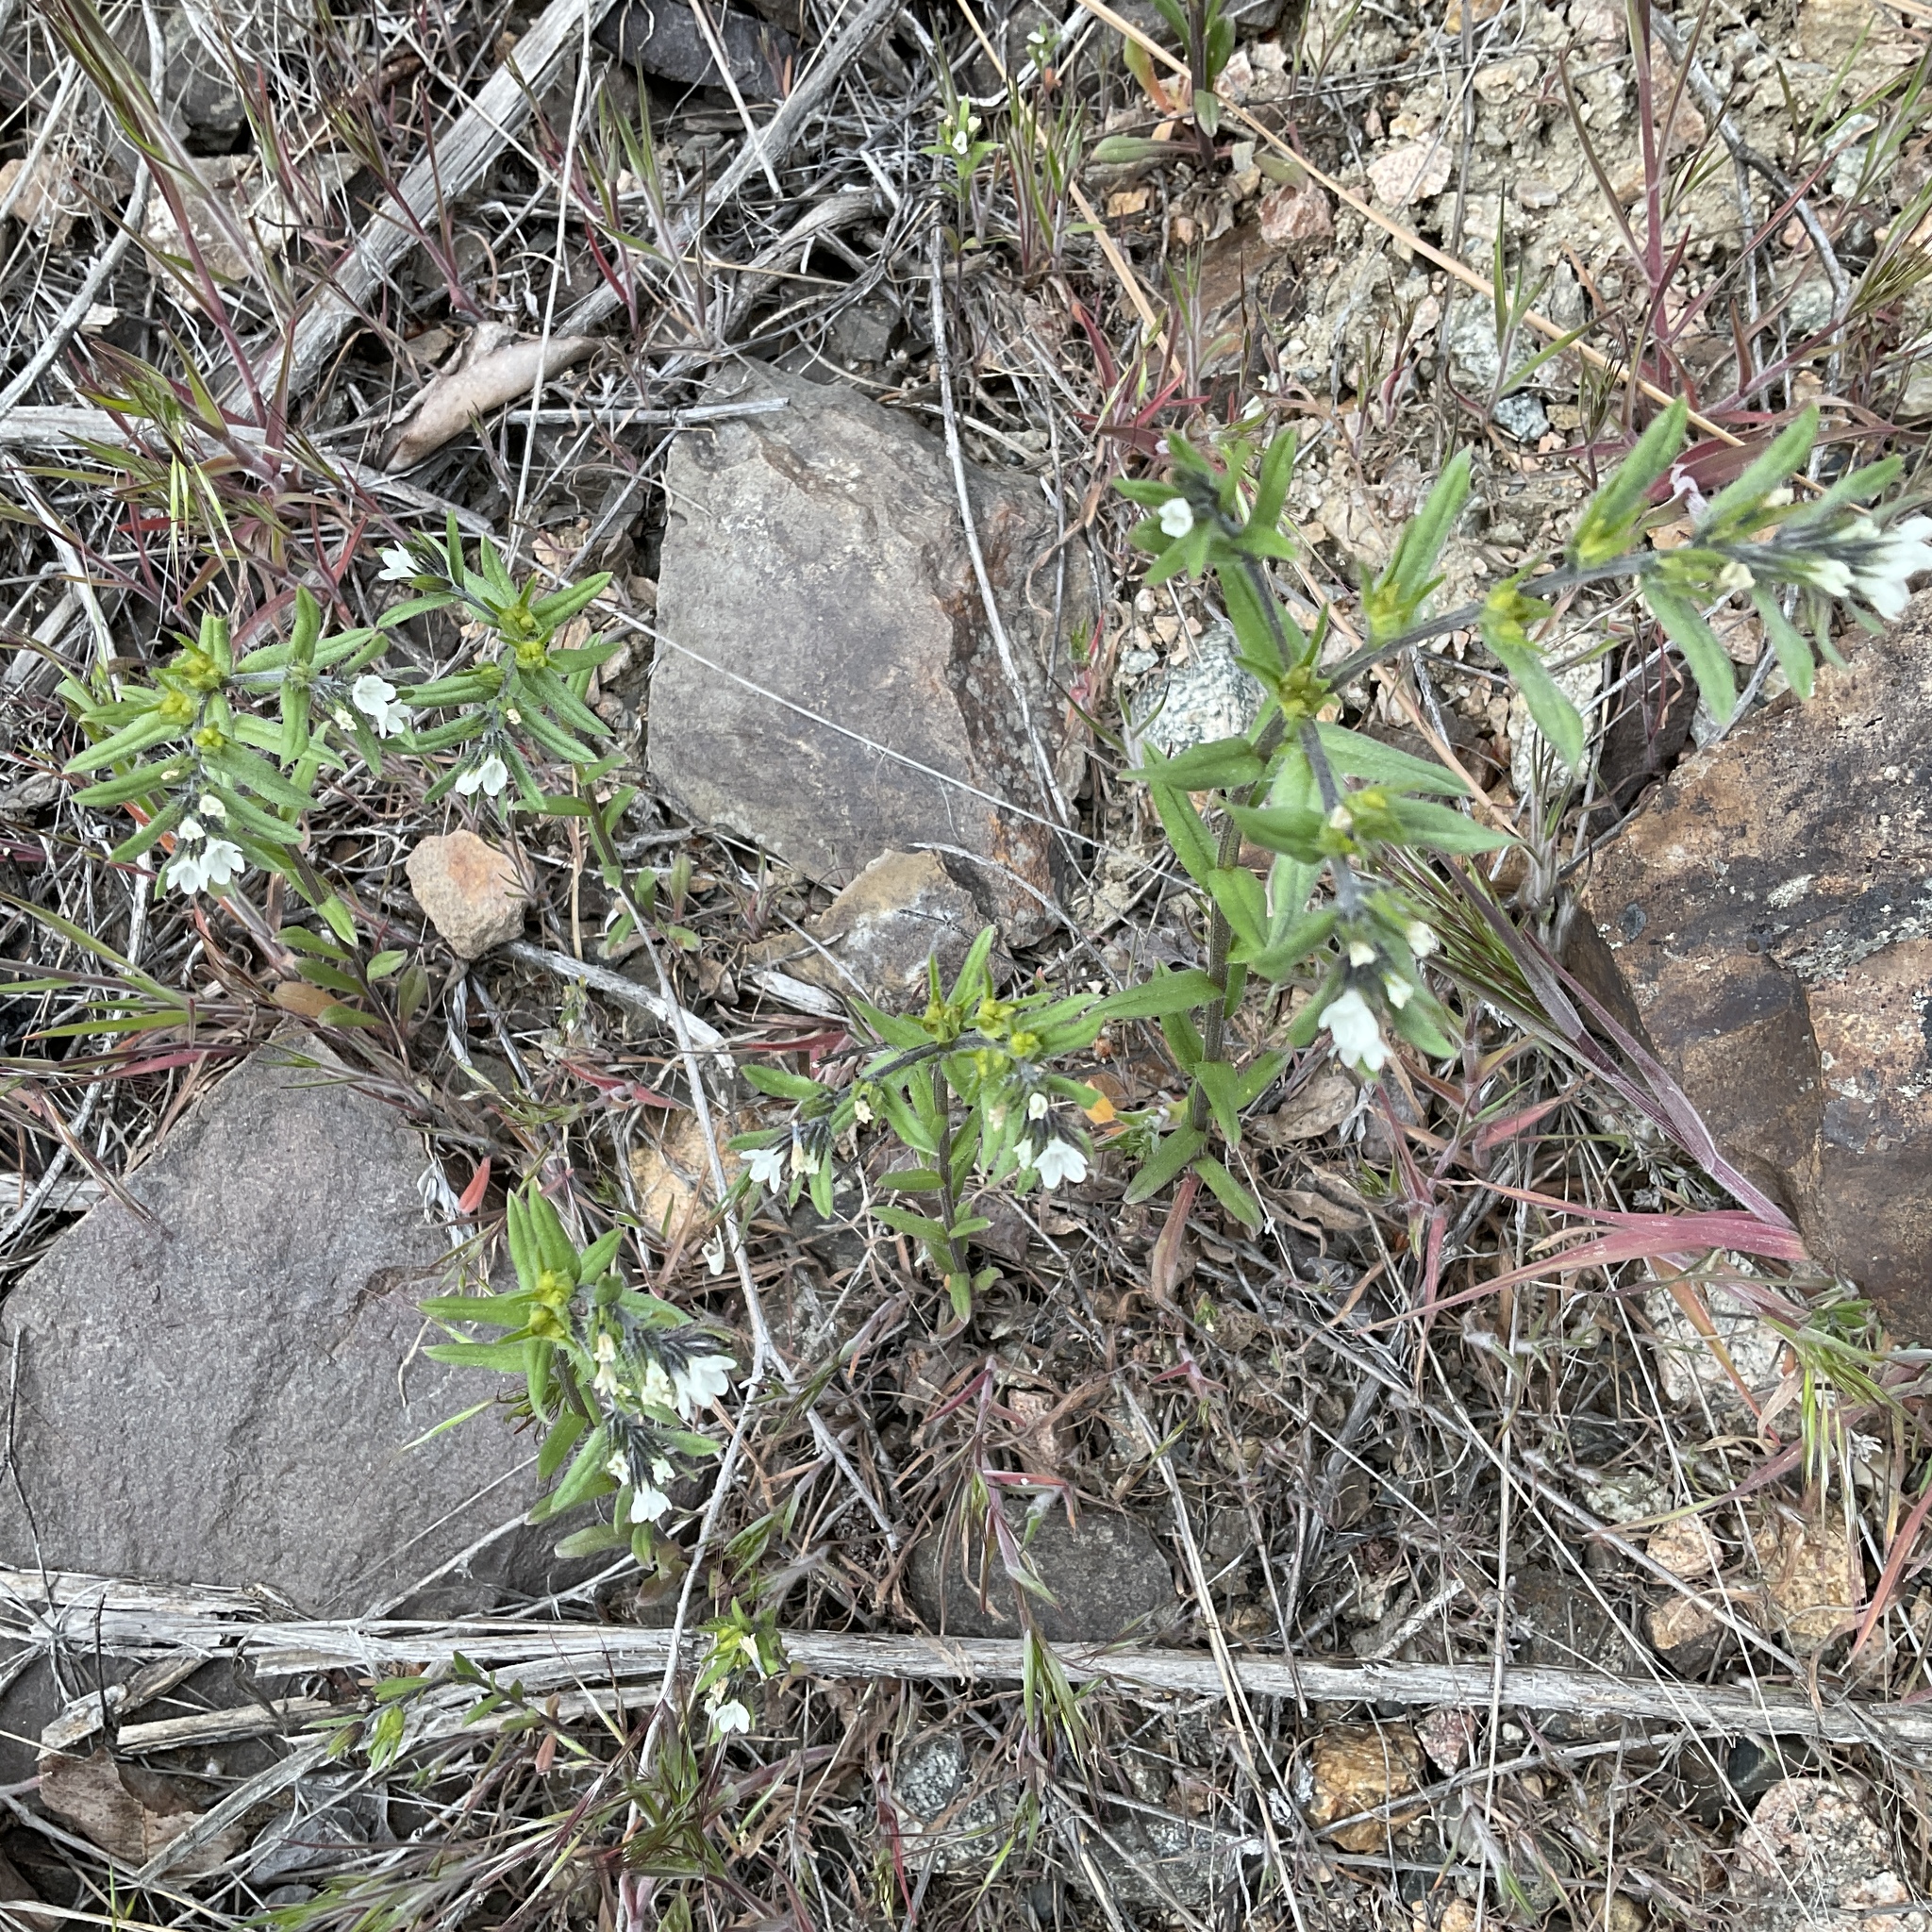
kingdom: Plantae
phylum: Tracheophyta
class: Magnoliopsida
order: Boraginales
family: Boraginaceae
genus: Buglossoides
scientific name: Buglossoides arvensis
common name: Corn gromwell
